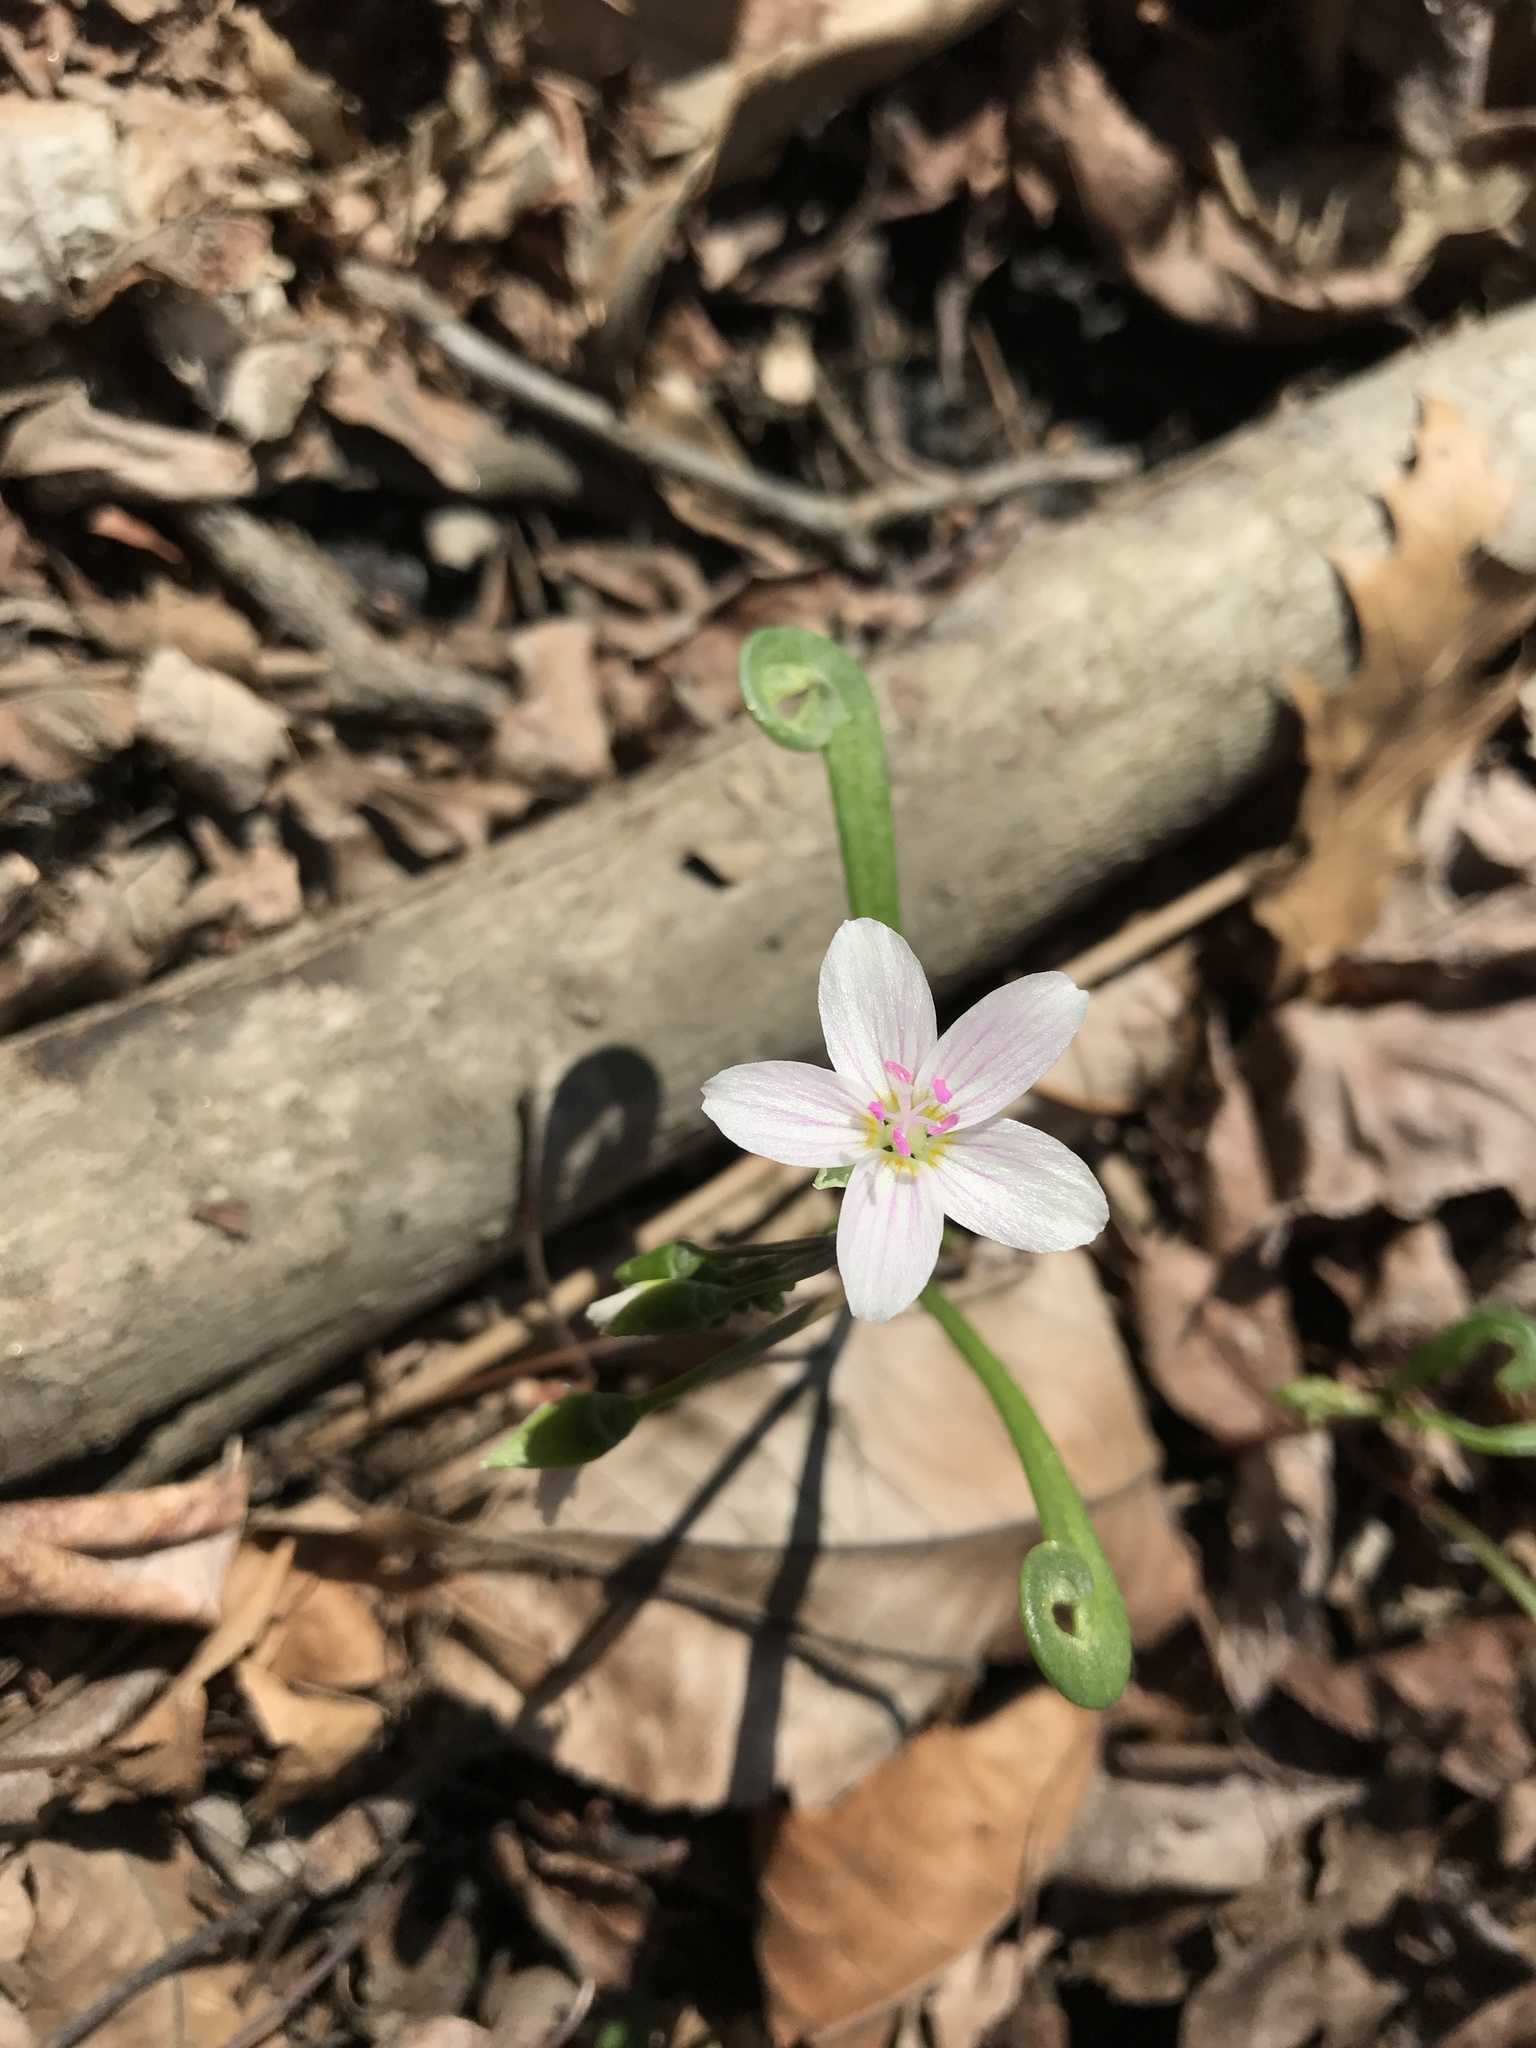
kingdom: Plantae
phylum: Tracheophyta
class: Magnoliopsida
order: Caryophyllales
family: Montiaceae
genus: Claytonia
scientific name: Claytonia virginica
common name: Virginia springbeauty
